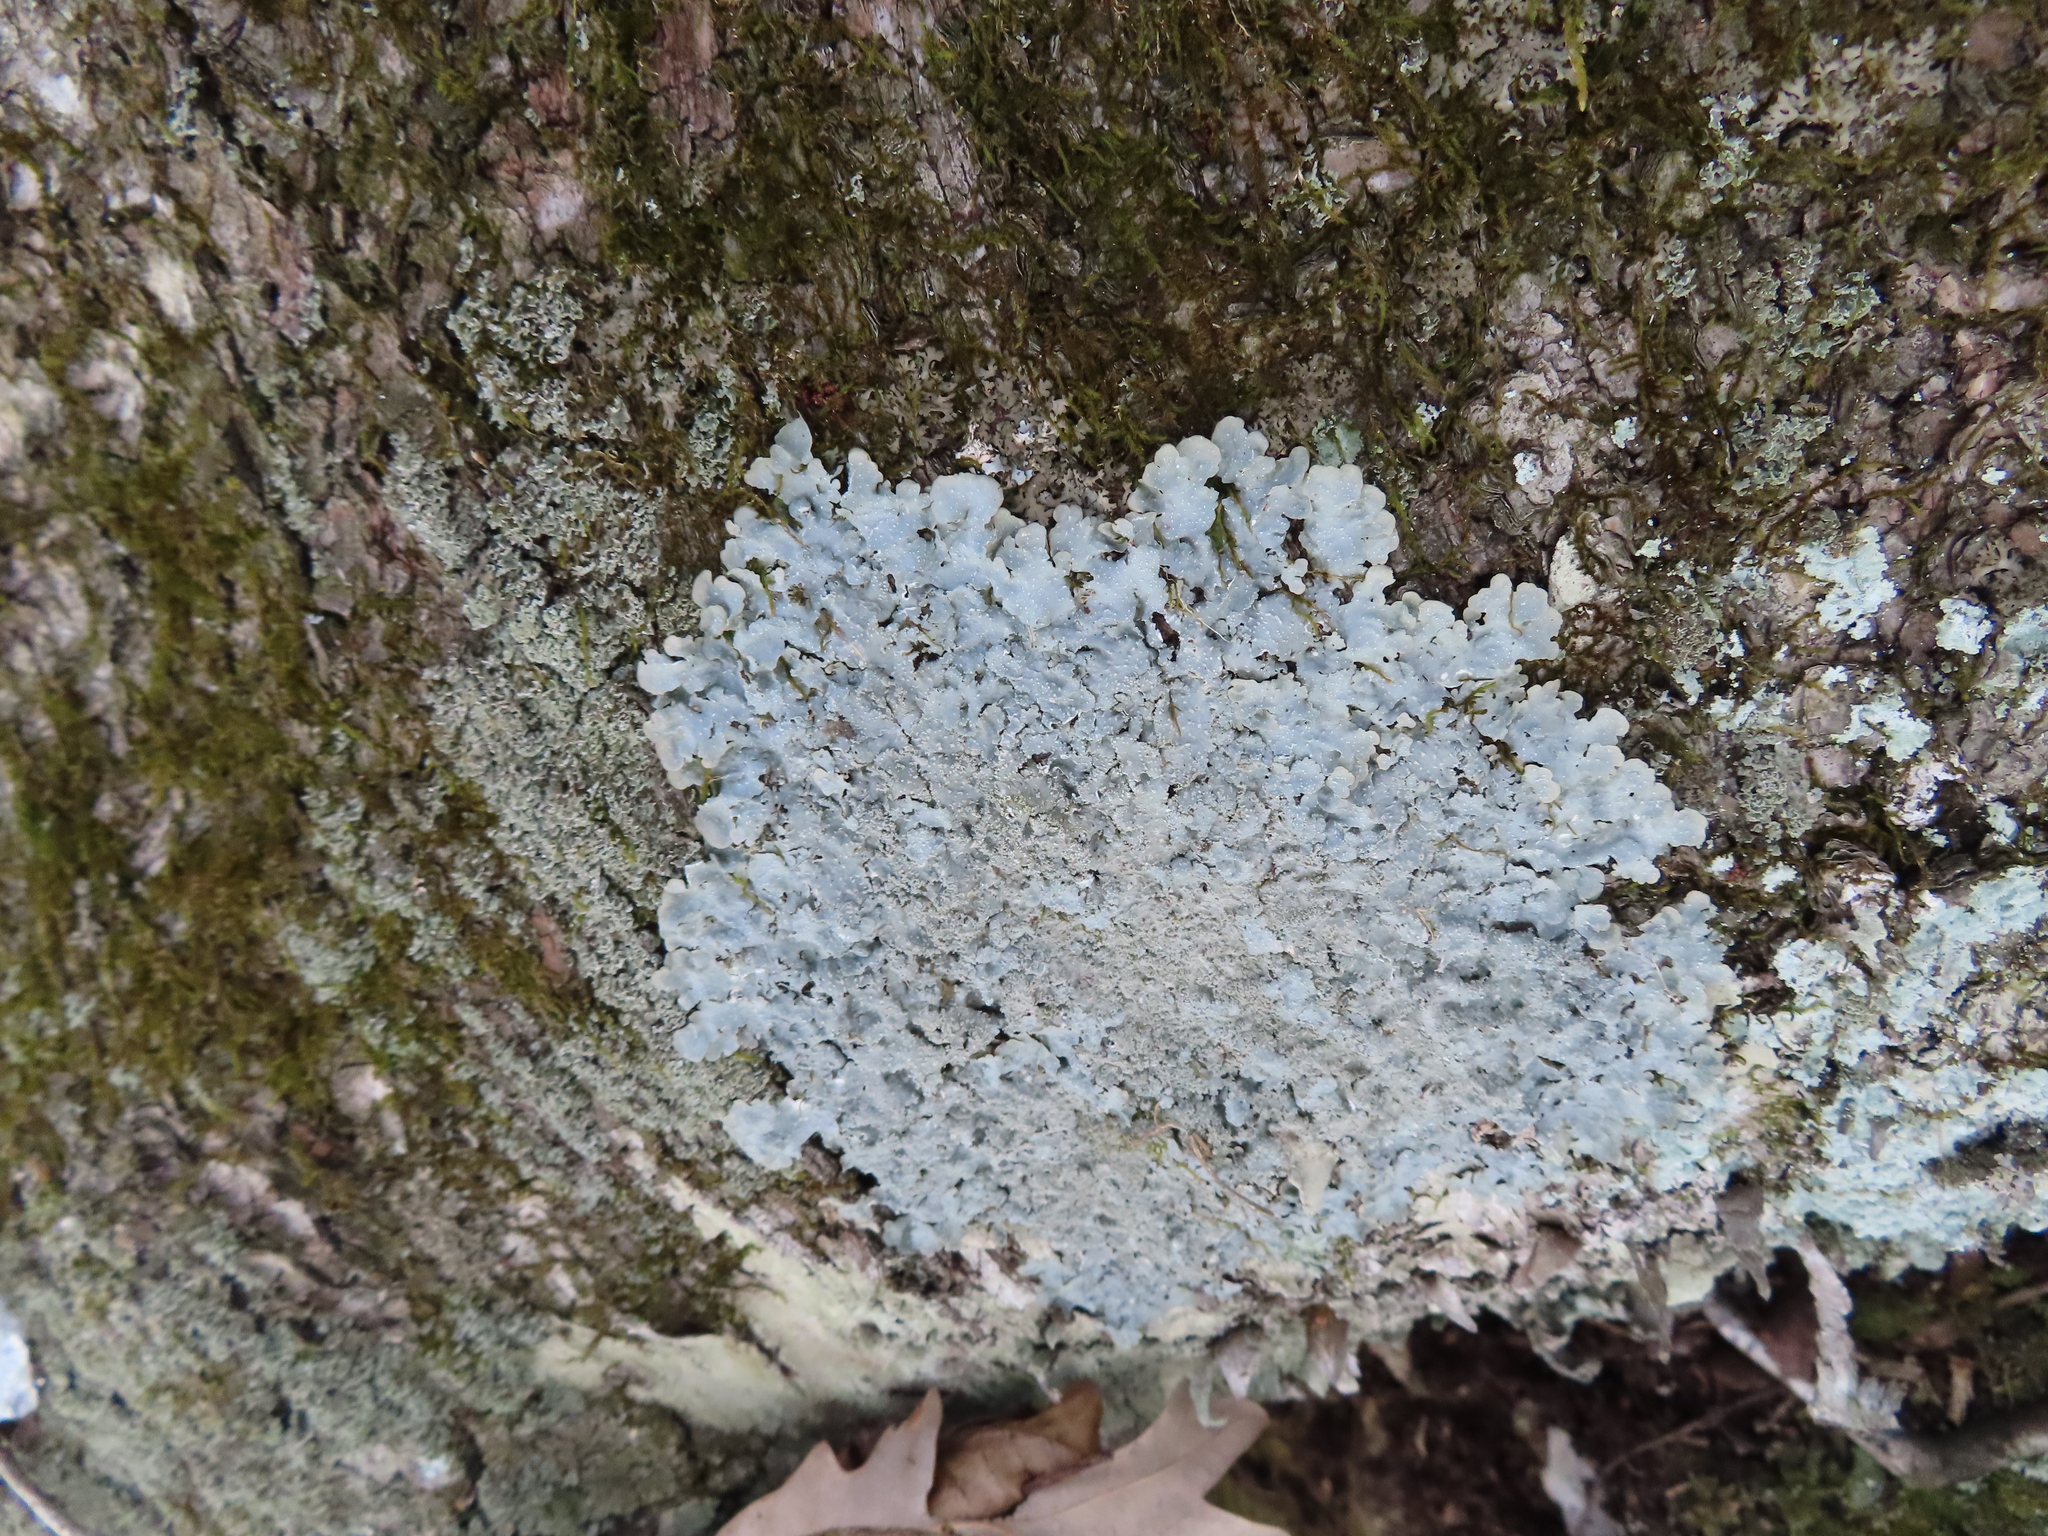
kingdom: Fungi
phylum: Ascomycota
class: Lecanoromycetes
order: Lecanorales
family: Parmeliaceae
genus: Punctelia
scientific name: Punctelia missouriensis
